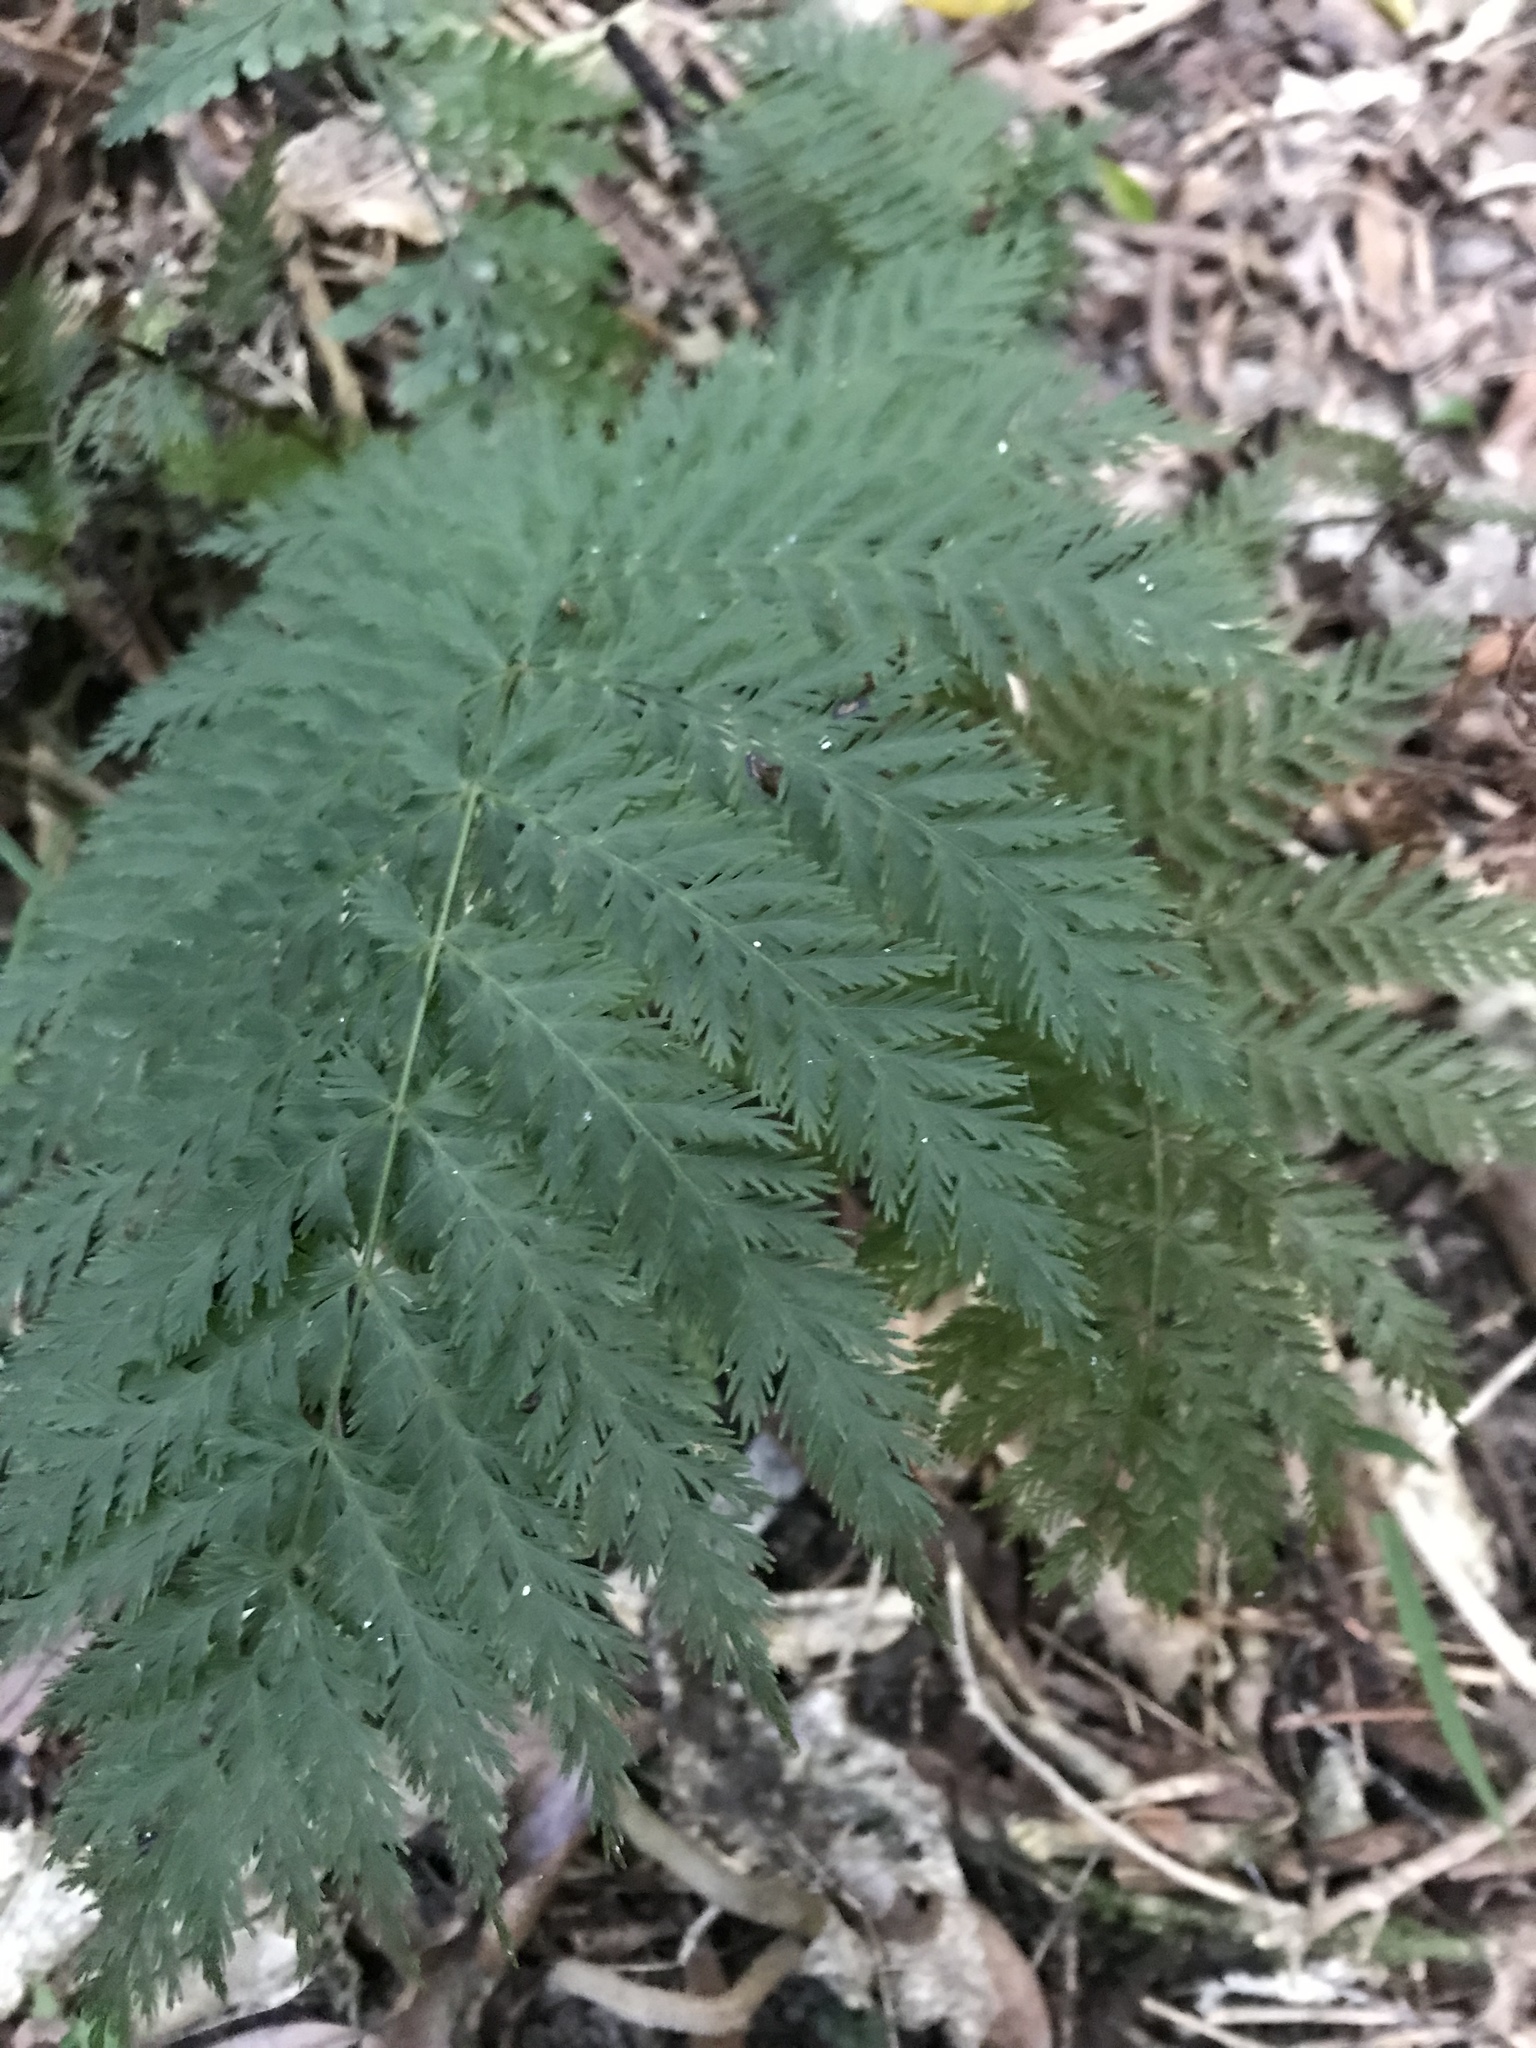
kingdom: Plantae
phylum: Tracheophyta
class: Polypodiopsida
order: Osmundales
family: Osmundaceae
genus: Leptopteris
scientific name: Leptopteris hymenophylloides
